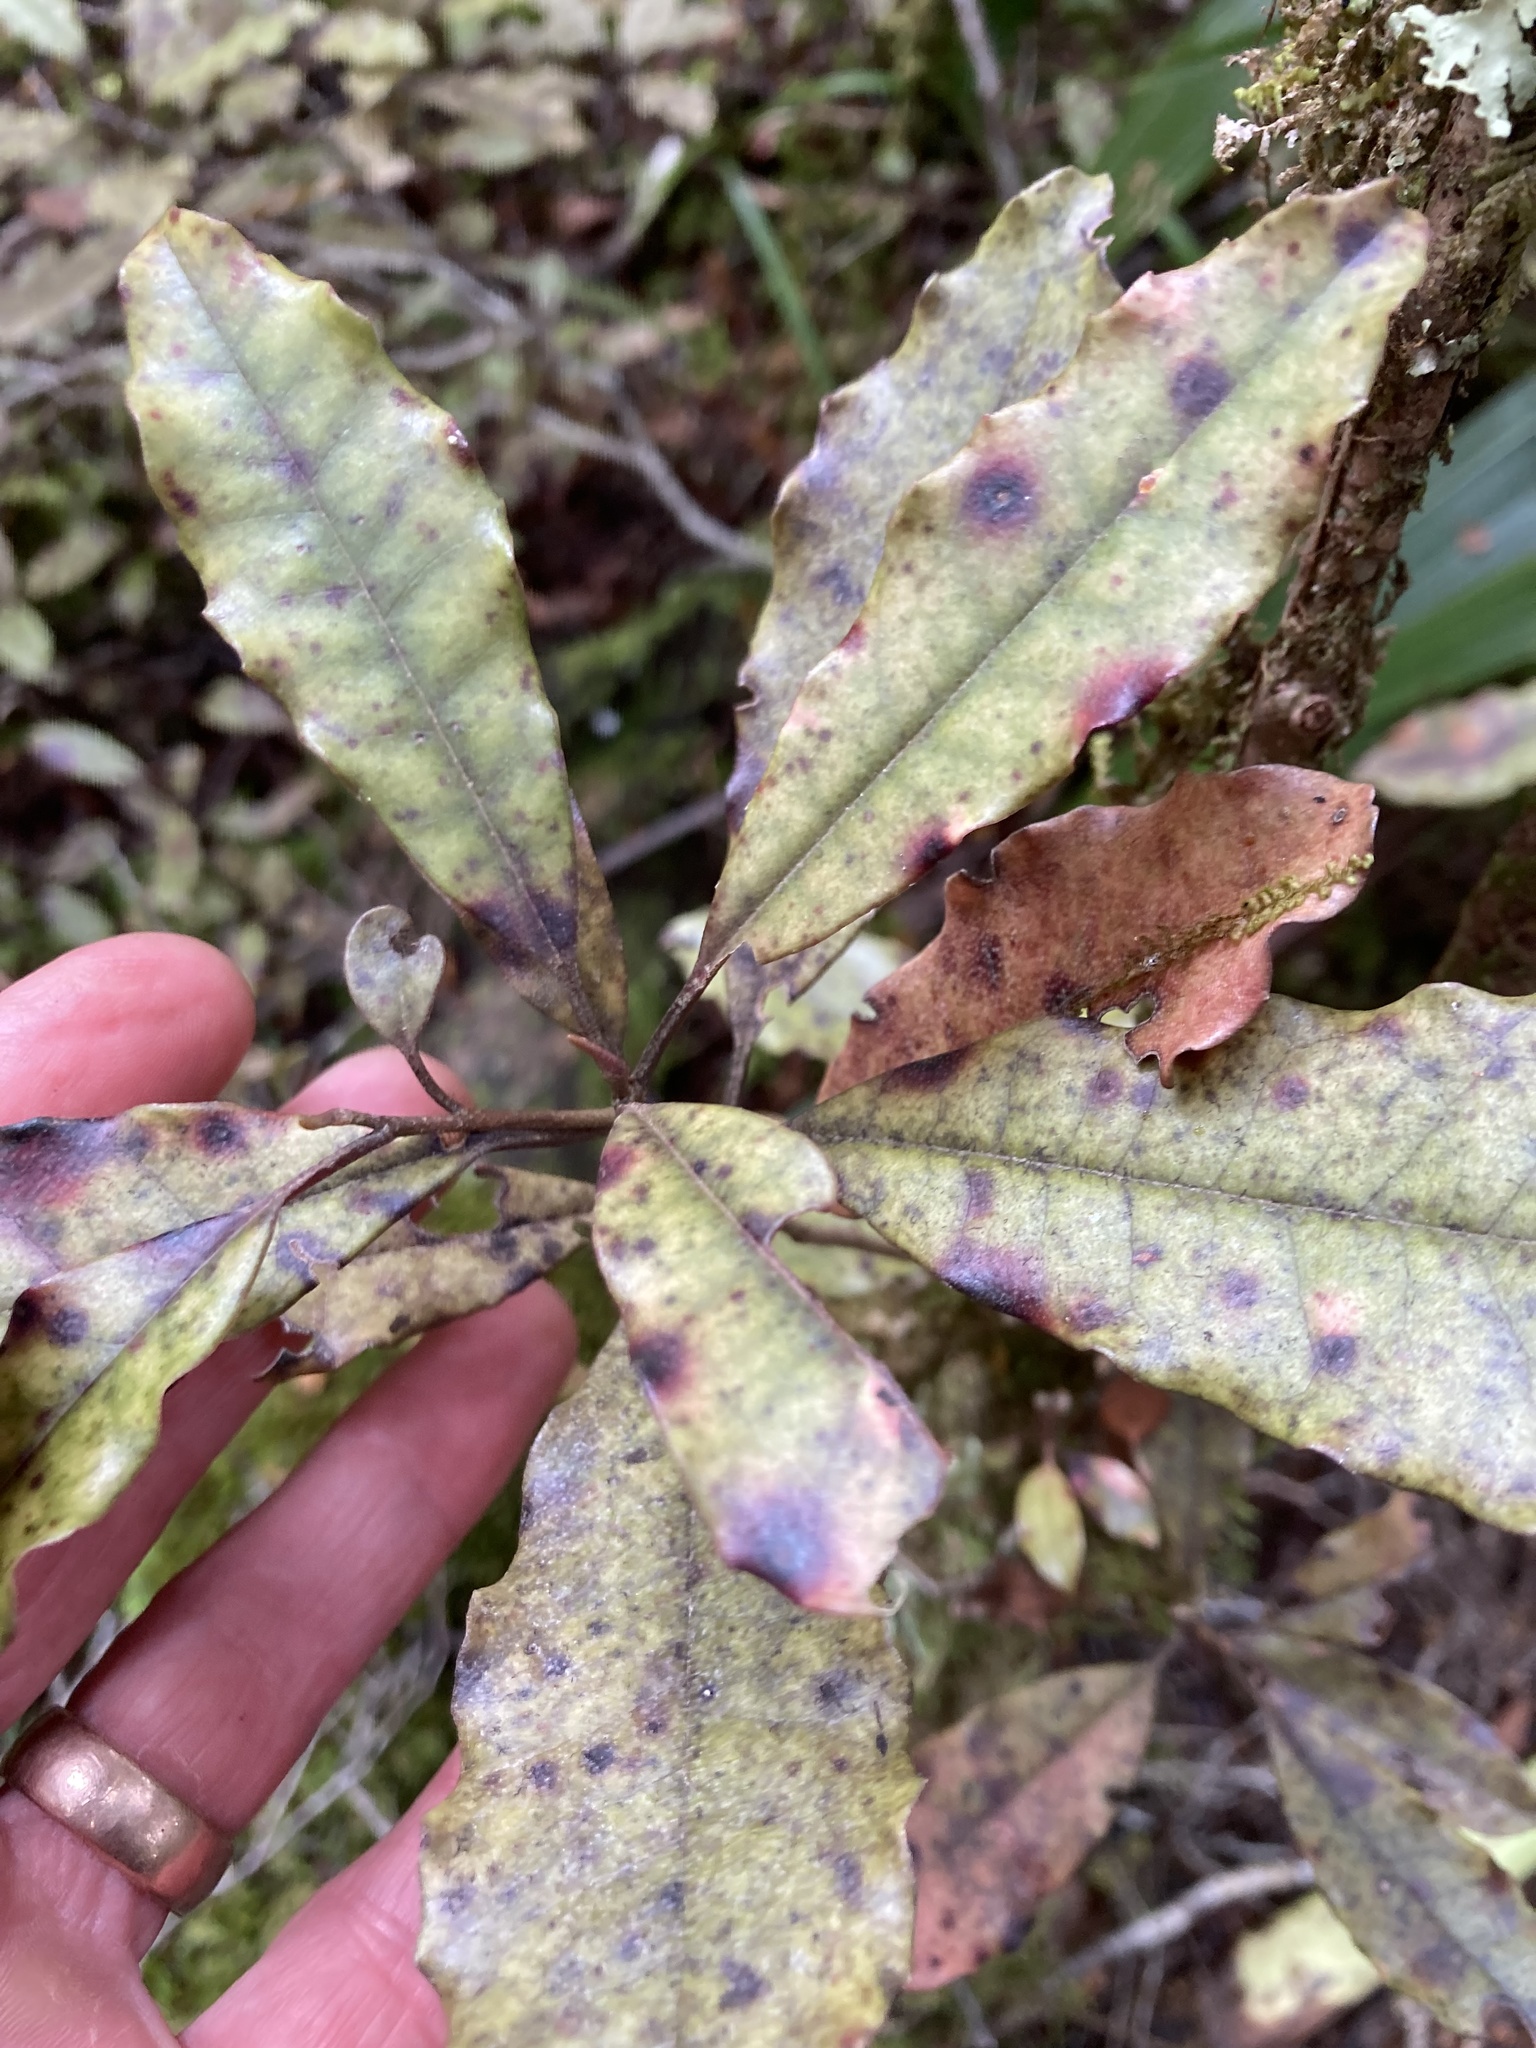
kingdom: Plantae
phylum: Tracheophyta
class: Magnoliopsida
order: Paracryphiales
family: Paracryphiaceae
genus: Quintinia
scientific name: Quintinia serrata
